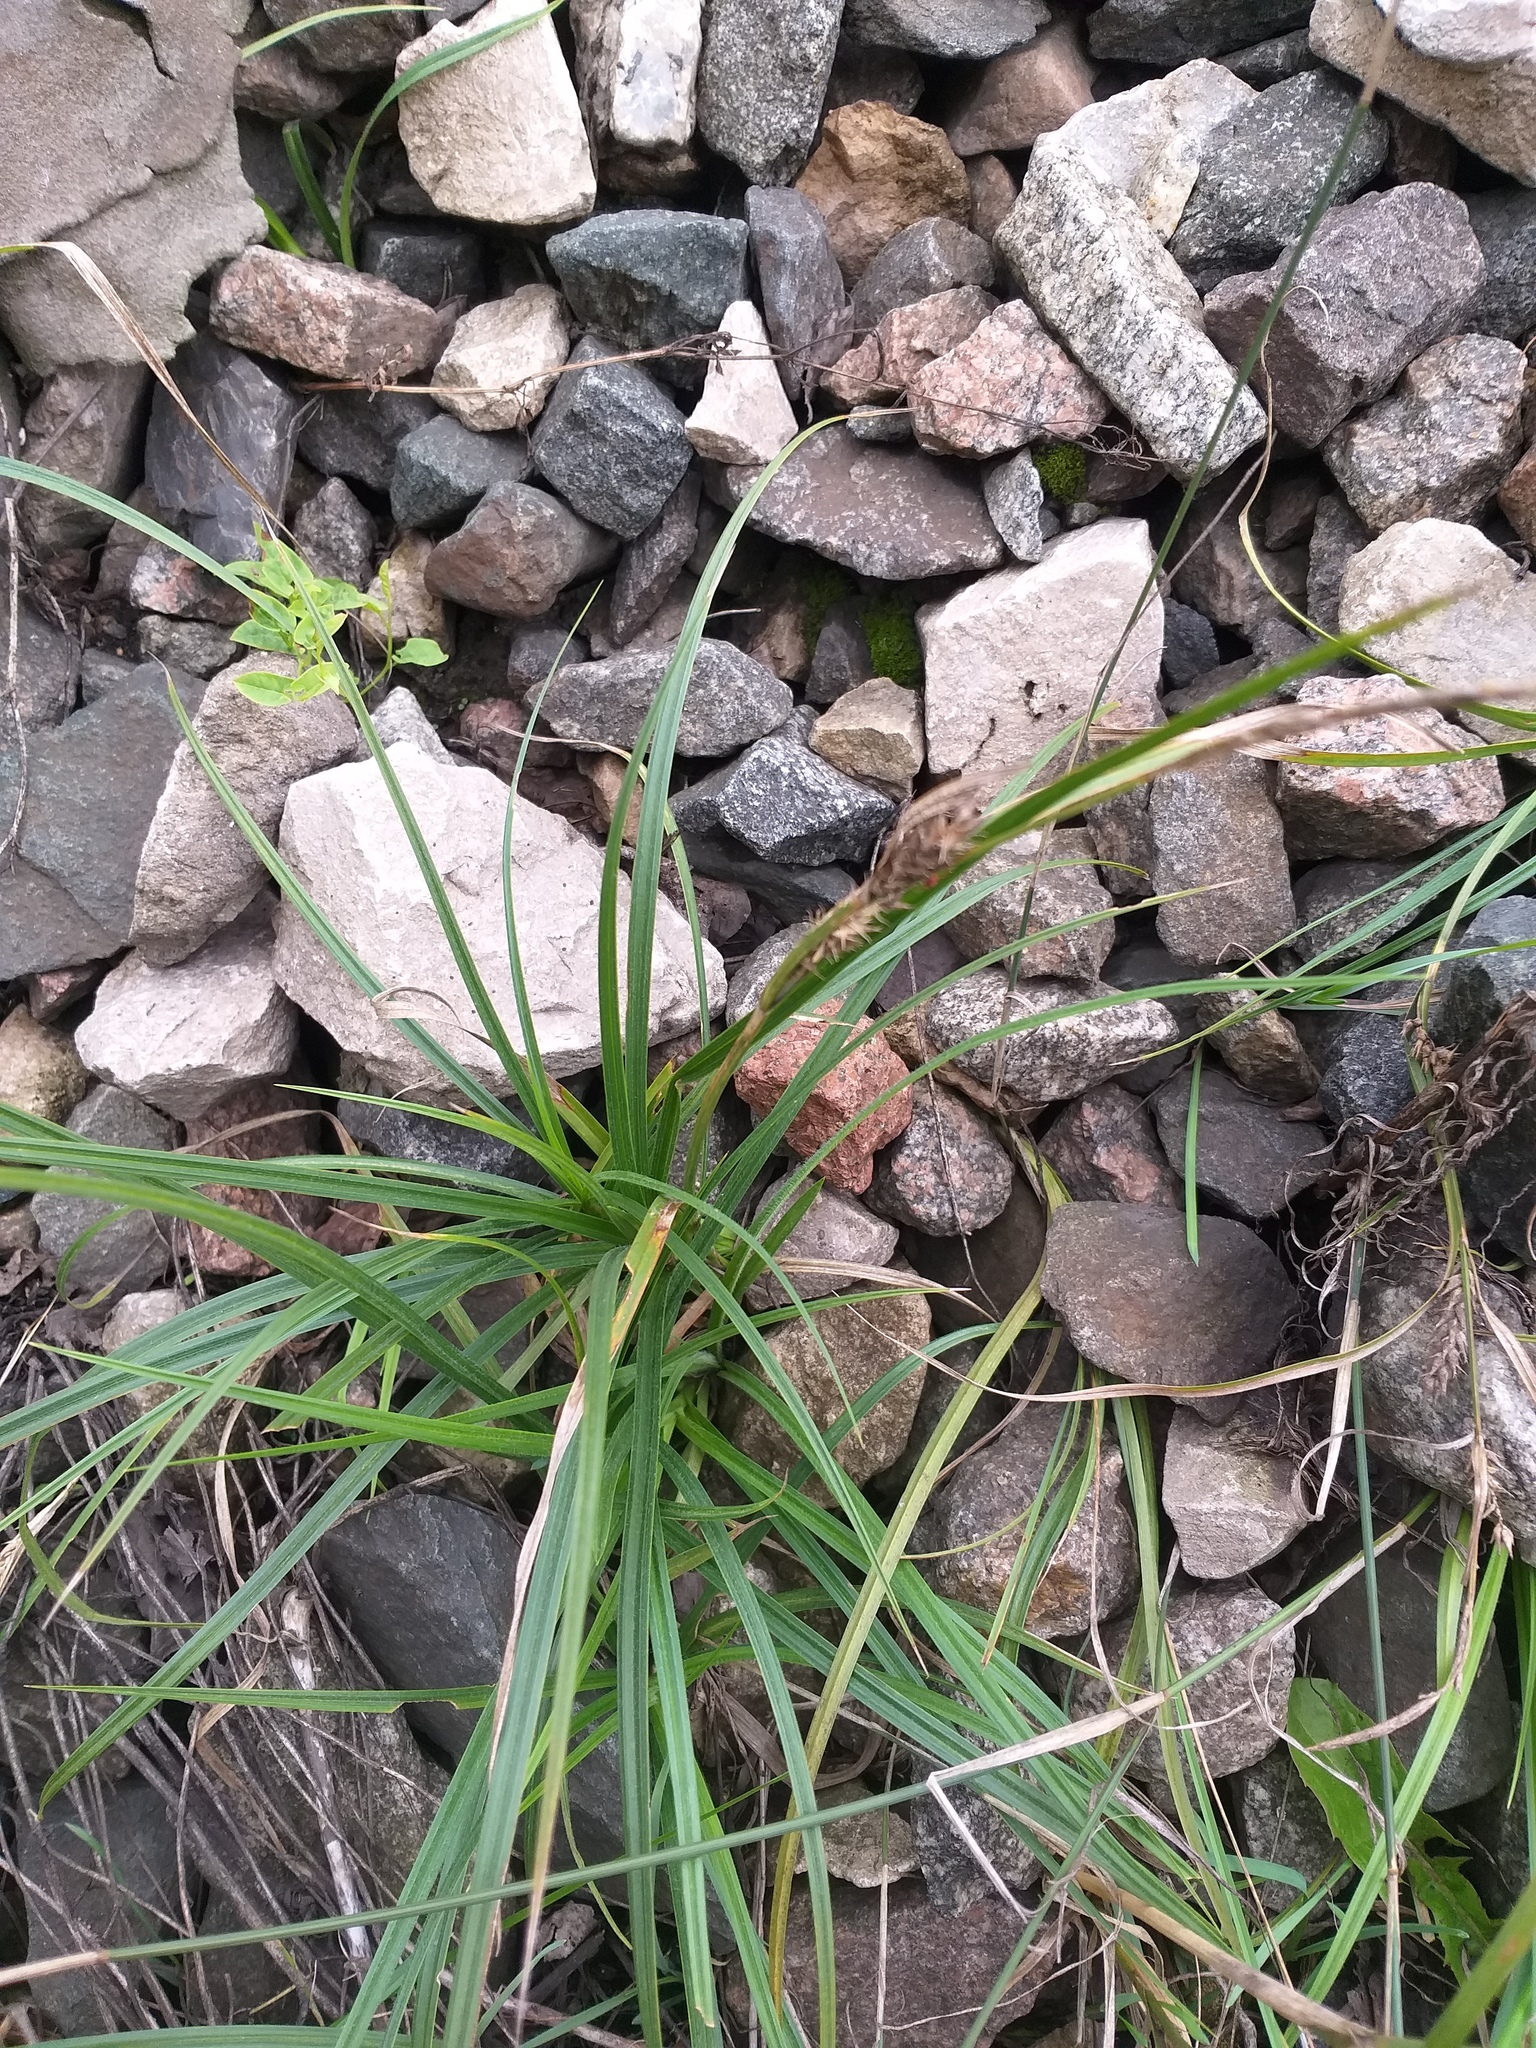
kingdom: Plantae
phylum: Tracheophyta
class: Liliopsida
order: Poales
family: Cyperaceae
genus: Carex
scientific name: Carex hirta
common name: Hairy sedge
